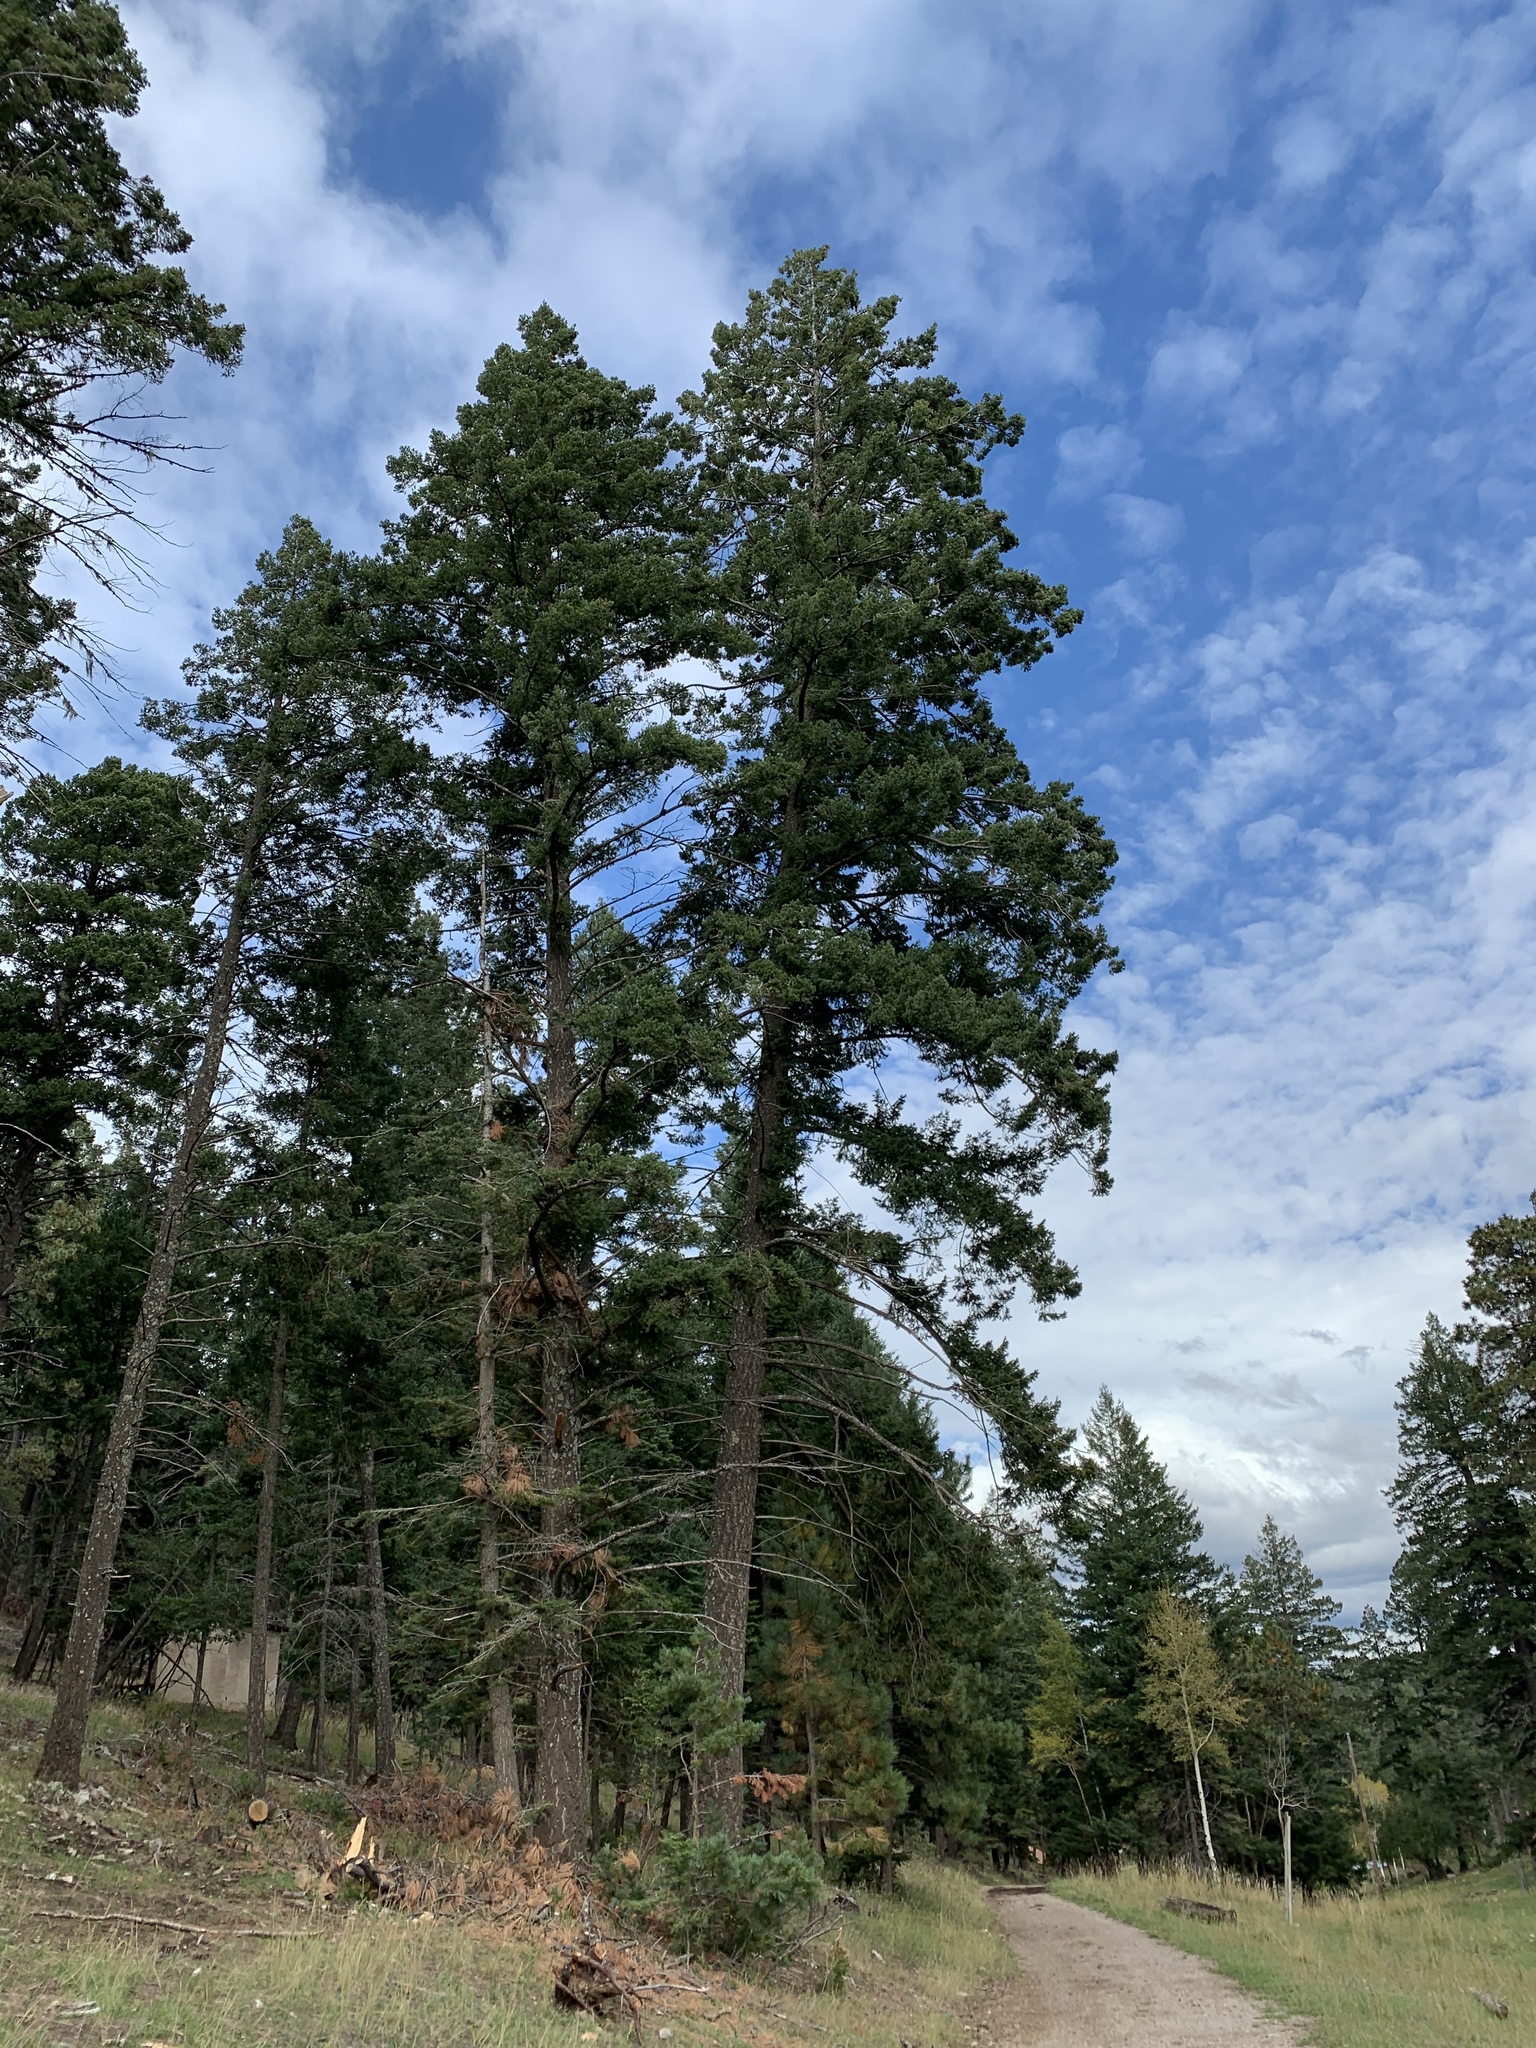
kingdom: Plantae
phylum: Tracheophyta
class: Pinopsida
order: Pinales
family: Pinaceae
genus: Pseudotsuga
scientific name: Pseudotsuga menziesii
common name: Douglas fir
